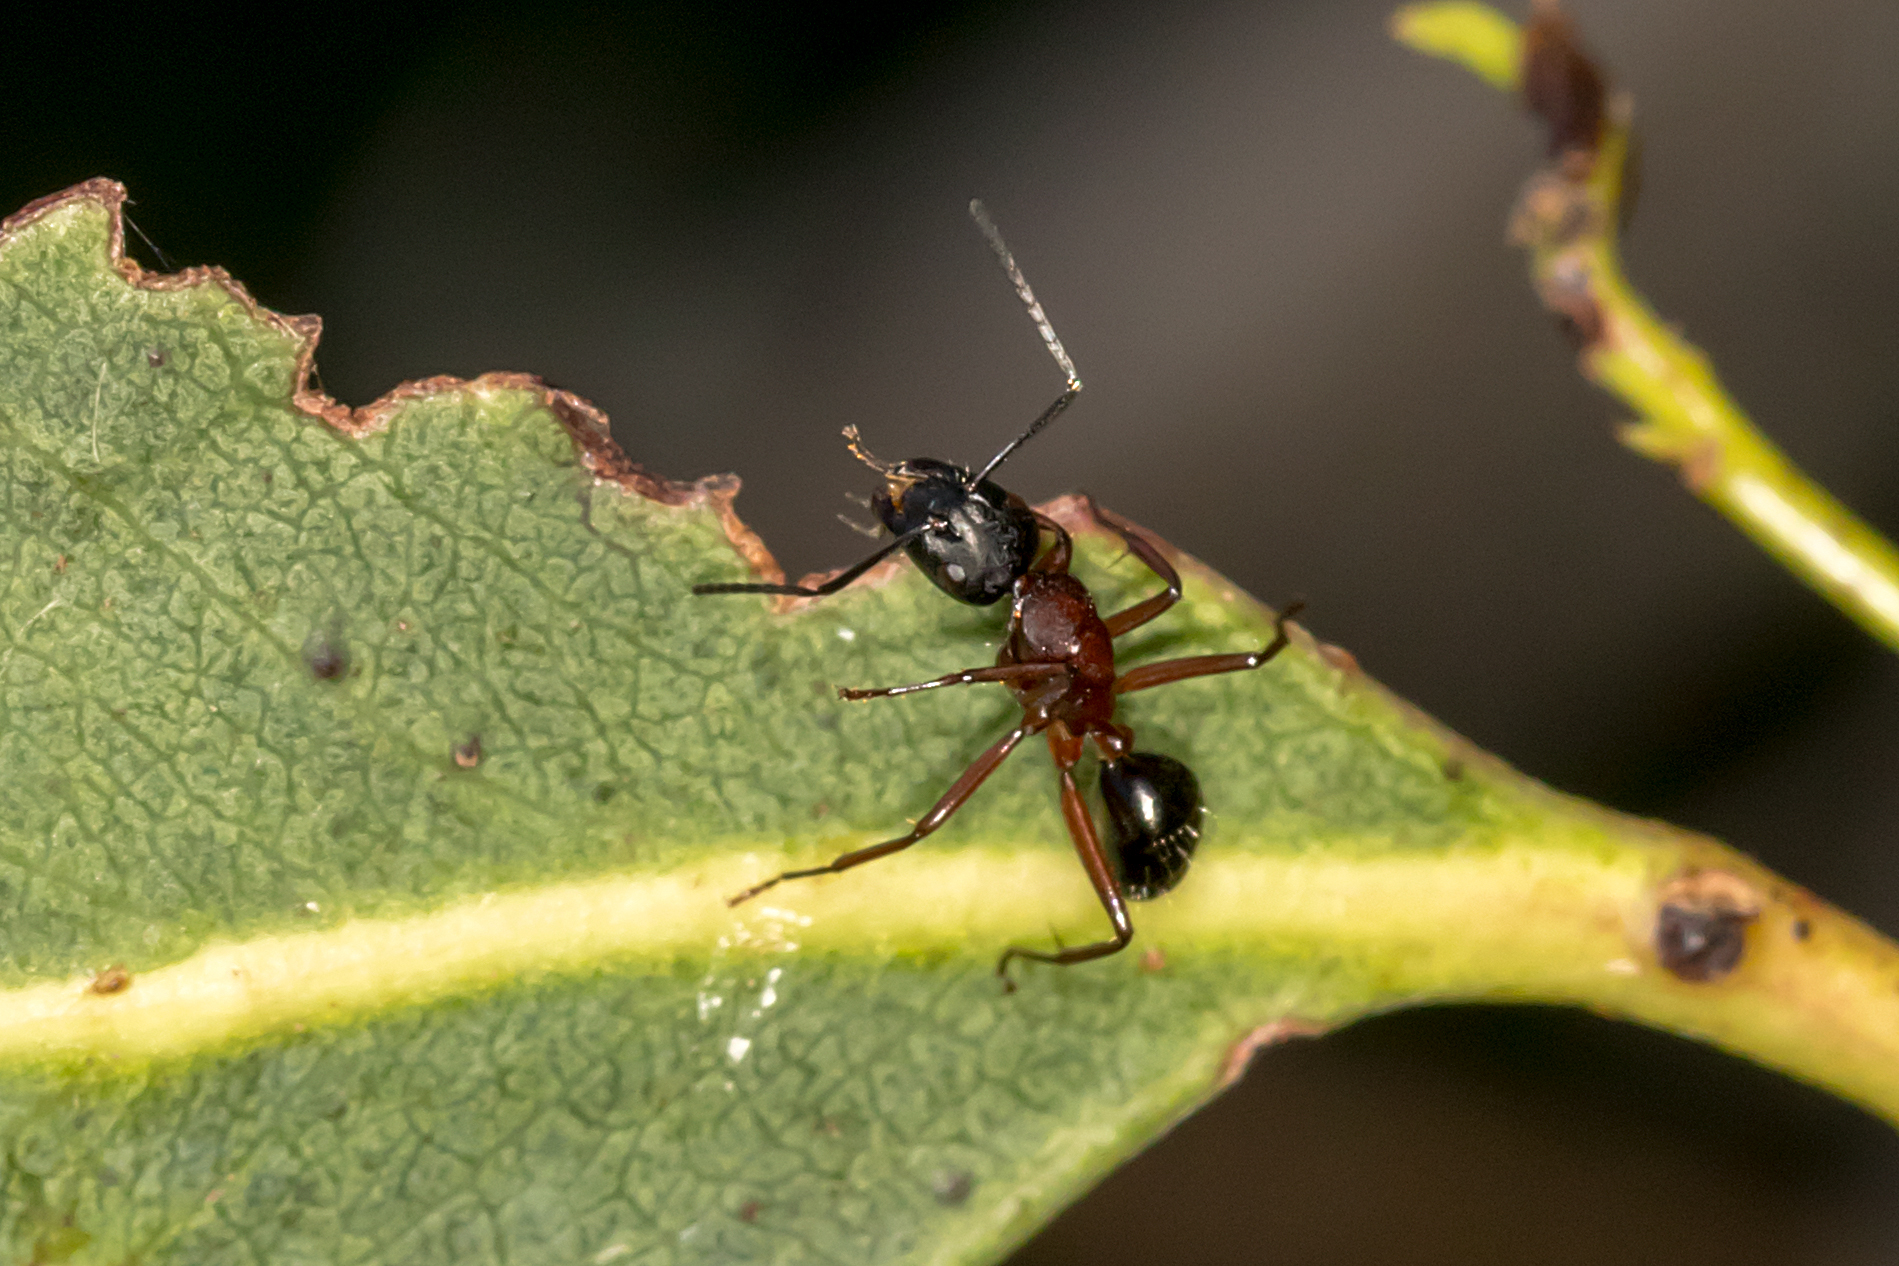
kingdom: Animalia
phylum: Arthropoda
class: Insecta
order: Hymenoptera
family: Formicidae
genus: Camponotus
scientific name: Camponotus innexus
